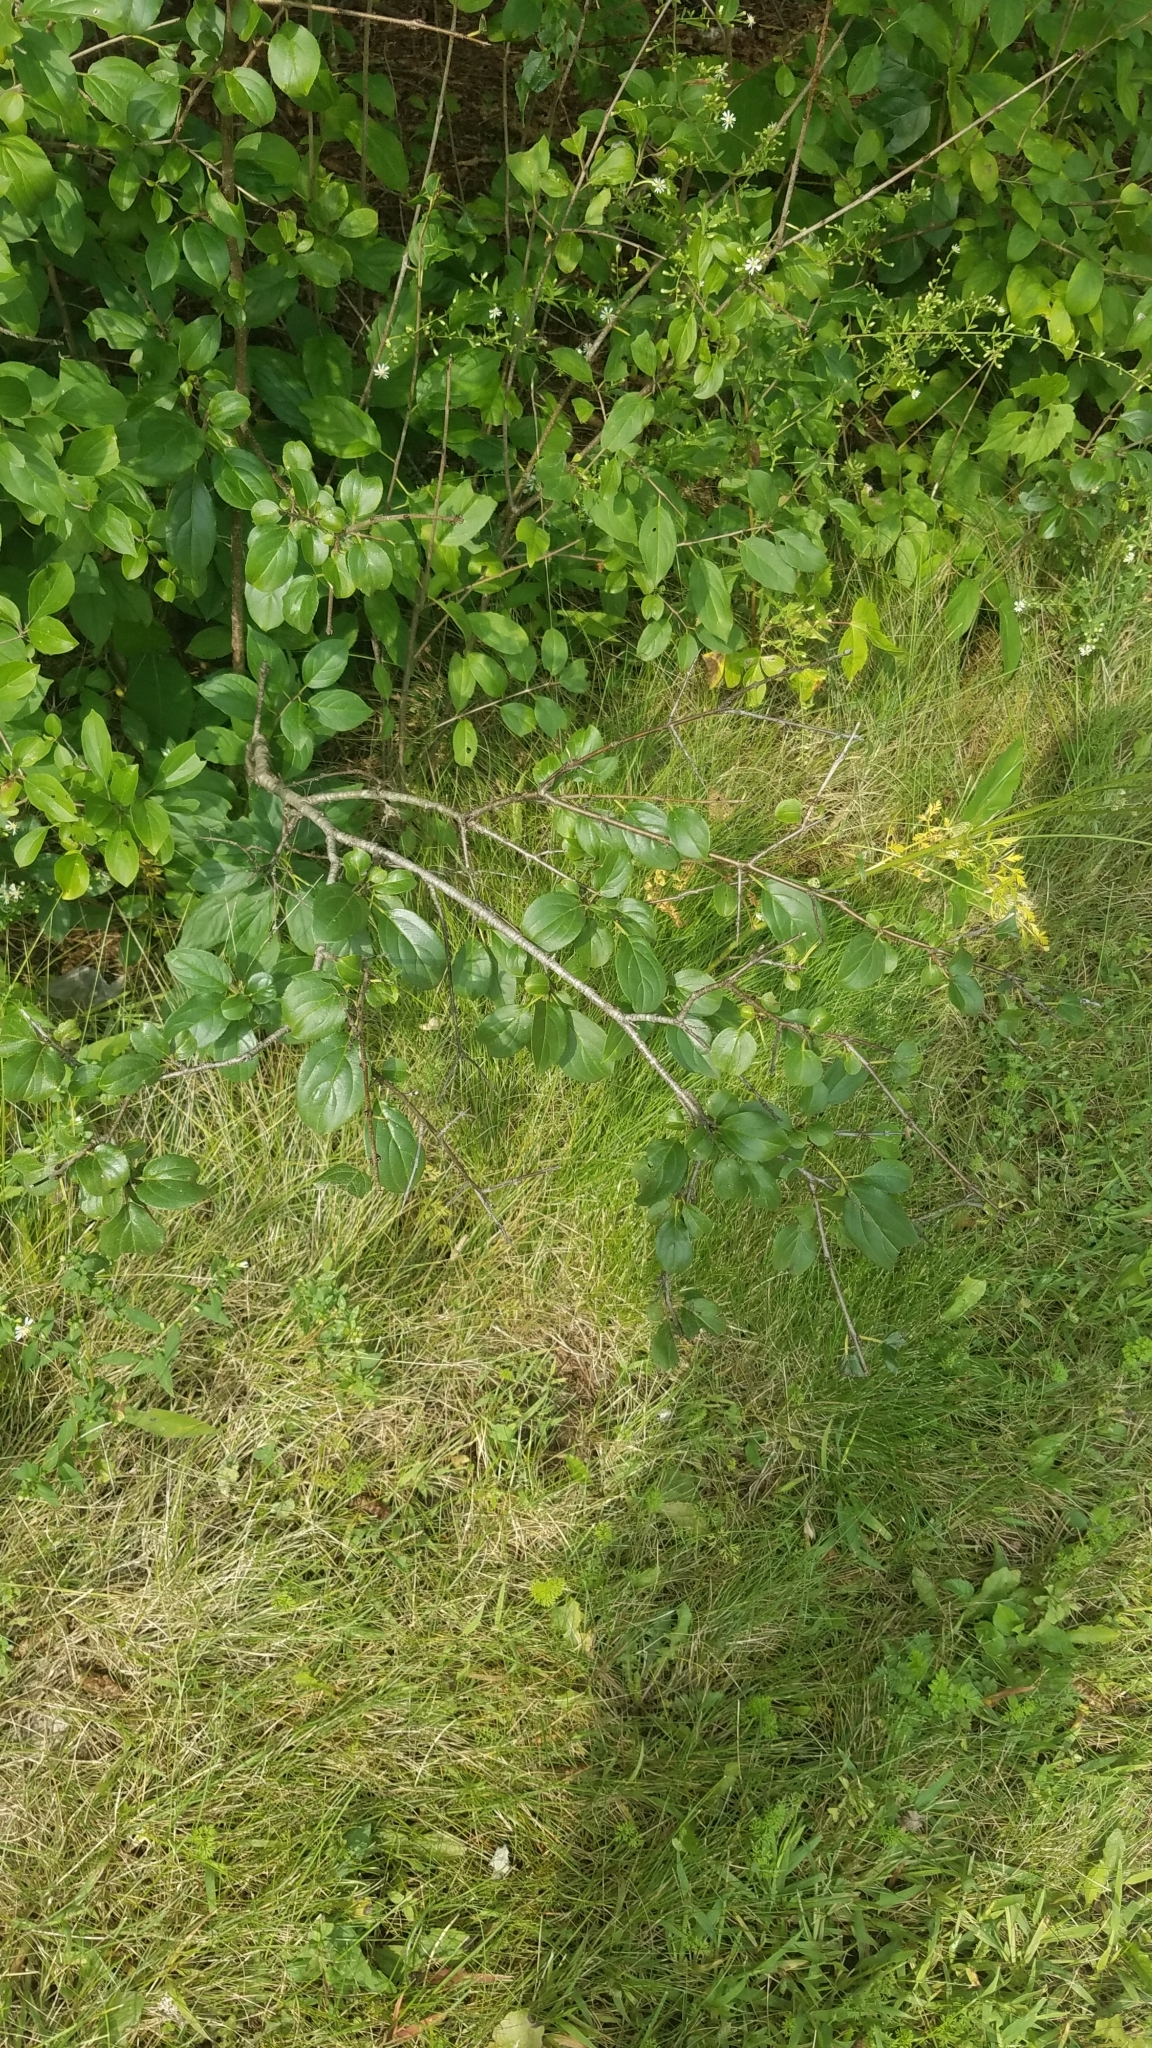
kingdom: Plantae
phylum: Tracheophyta
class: Magnoliopsida
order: Rosales
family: Rhamnaceae
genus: Rhamnus
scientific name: Rhamnus cathartica
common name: Common buckthorn
